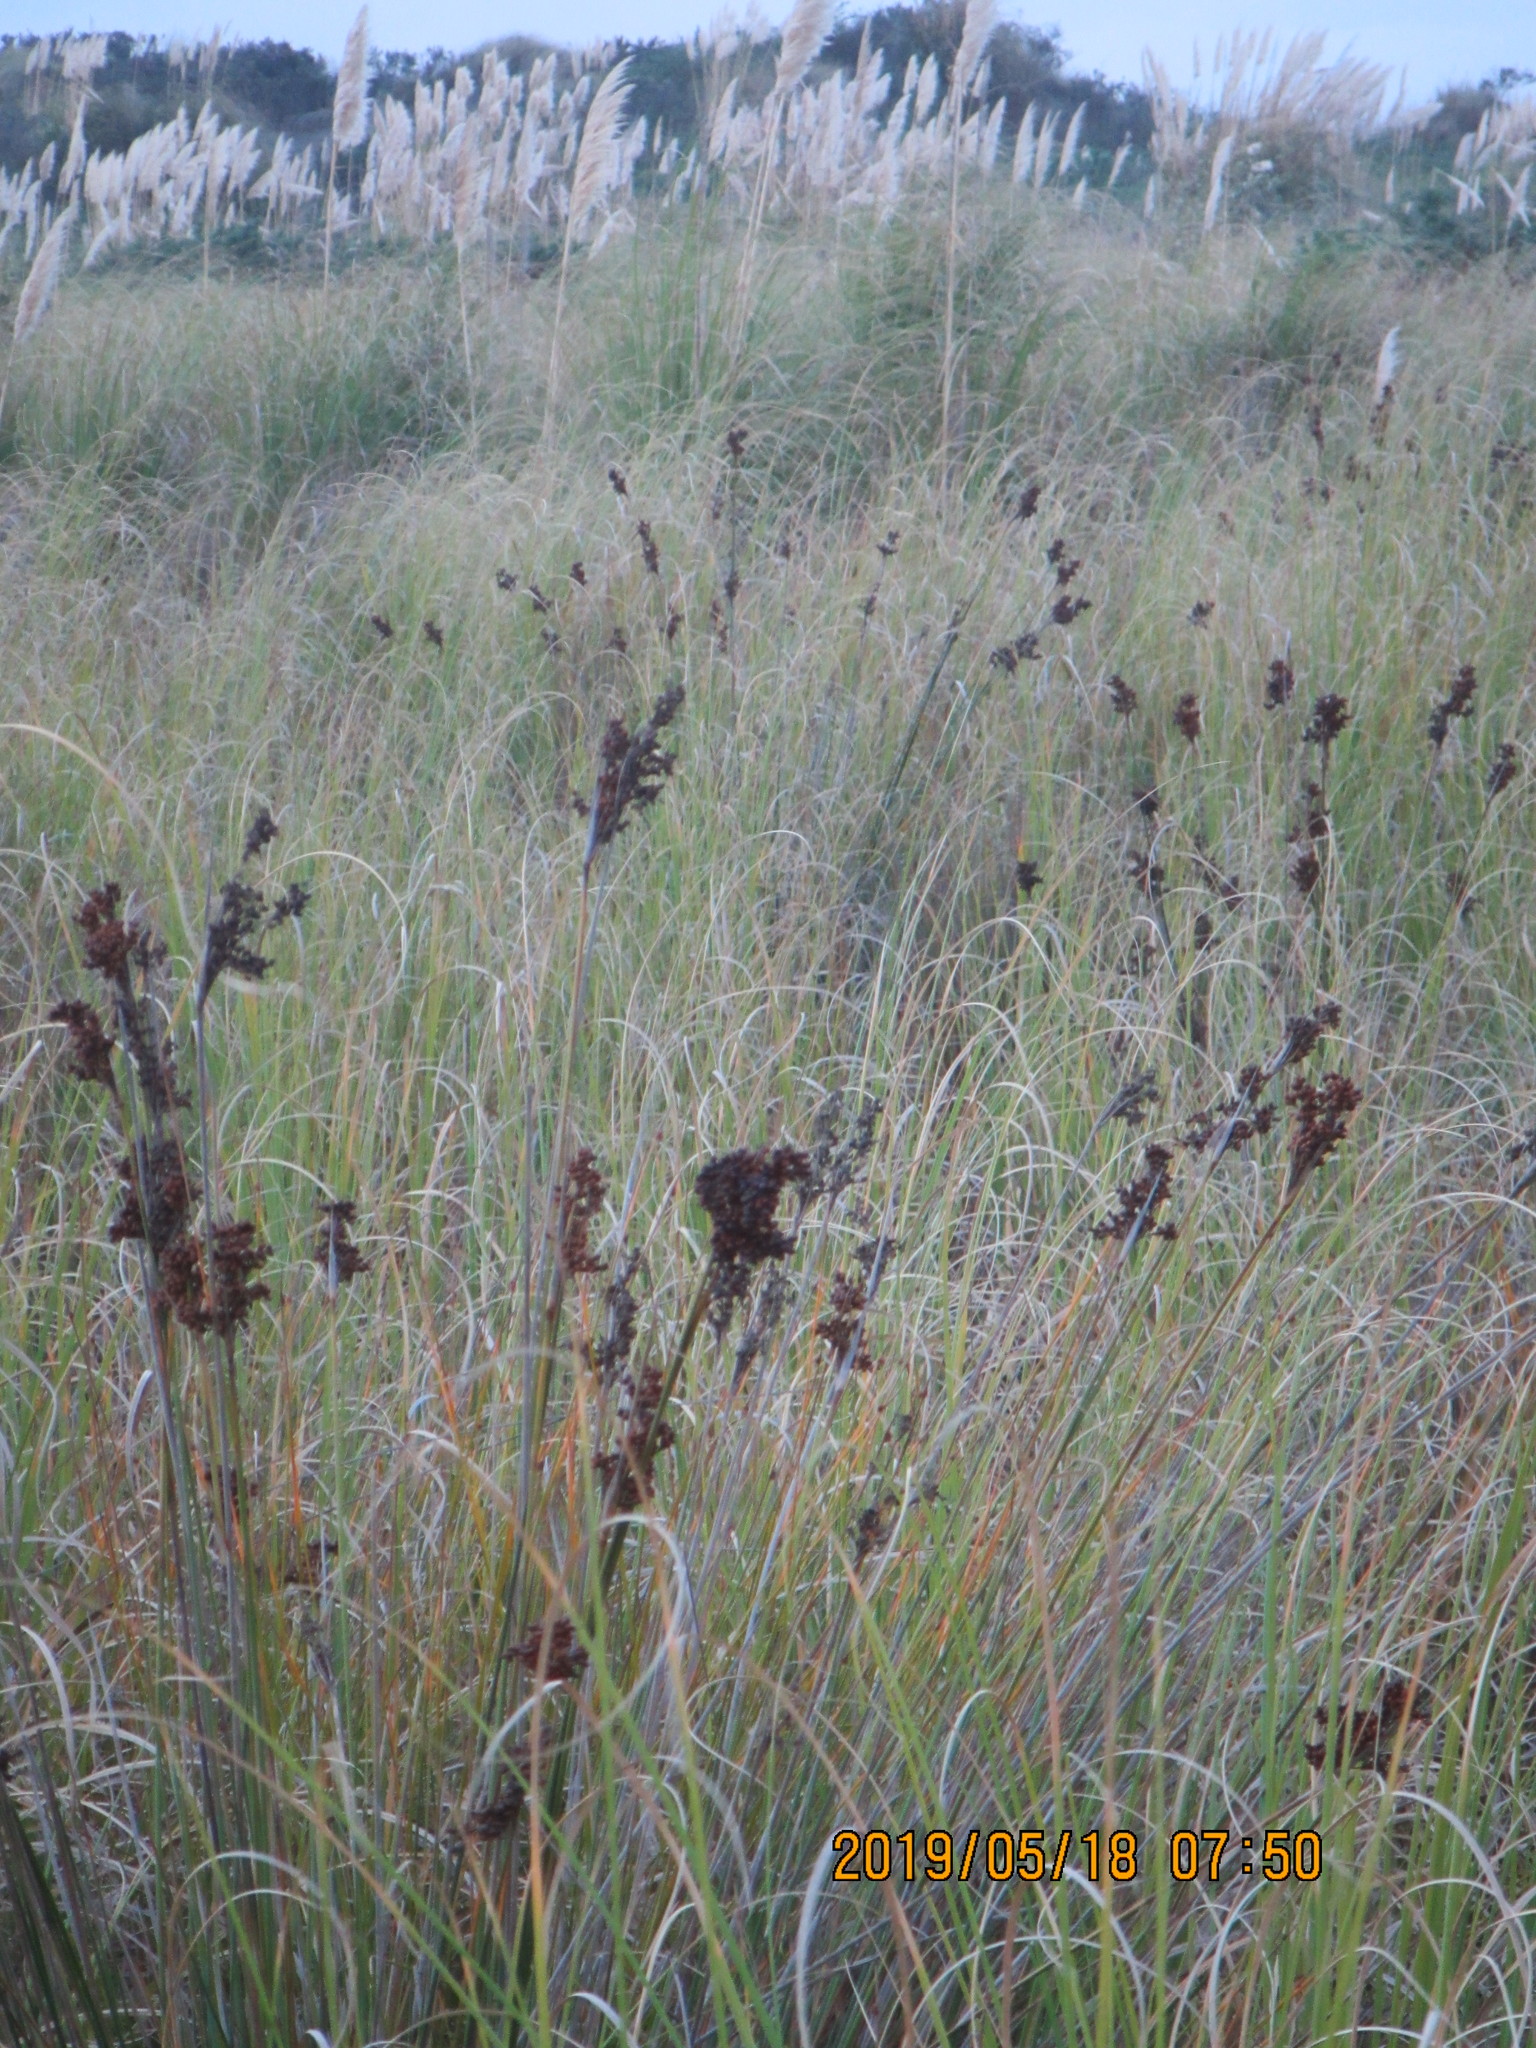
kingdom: Plantae
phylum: Tracheophyta
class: Liliopsida
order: Poales
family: Juncaceae
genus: Juncus
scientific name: Juncus acutus
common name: Sharp rush
